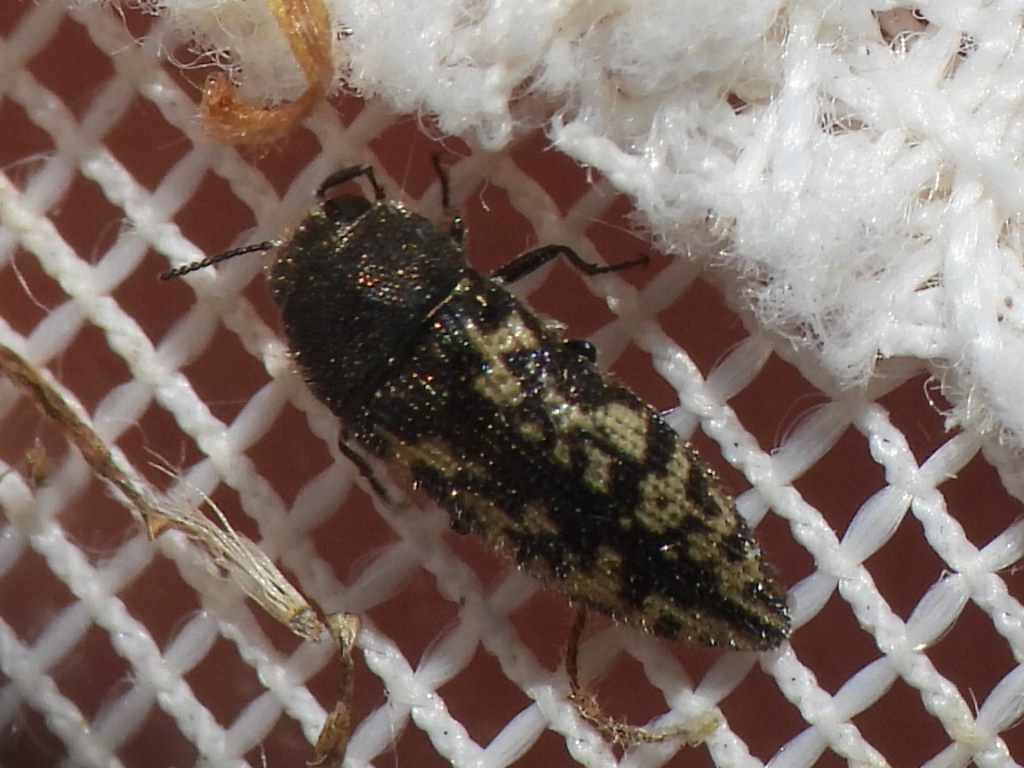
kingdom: Animalia
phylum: Arthropoda
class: Insecta
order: Coleoptera
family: Buprestidae
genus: Acmaeodera
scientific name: Acmaeodera neglecta
